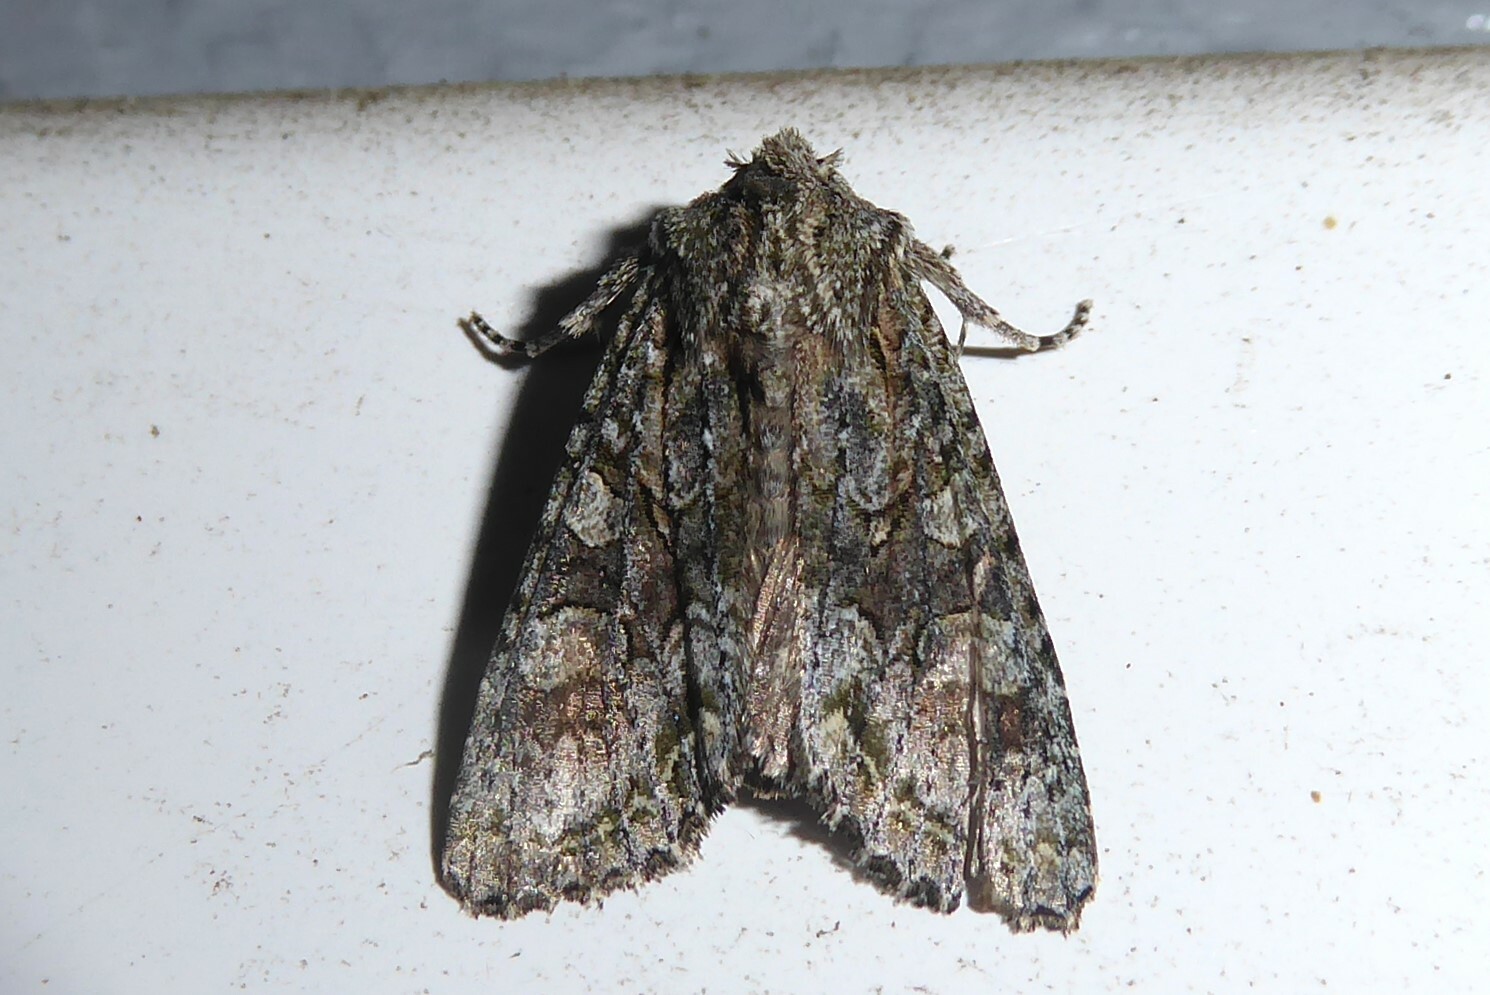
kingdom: Animalia
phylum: Arthropoda
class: Insecta
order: Lepidoptera
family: Noctuidae
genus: Ichneutica
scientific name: Ichneutica mutans
